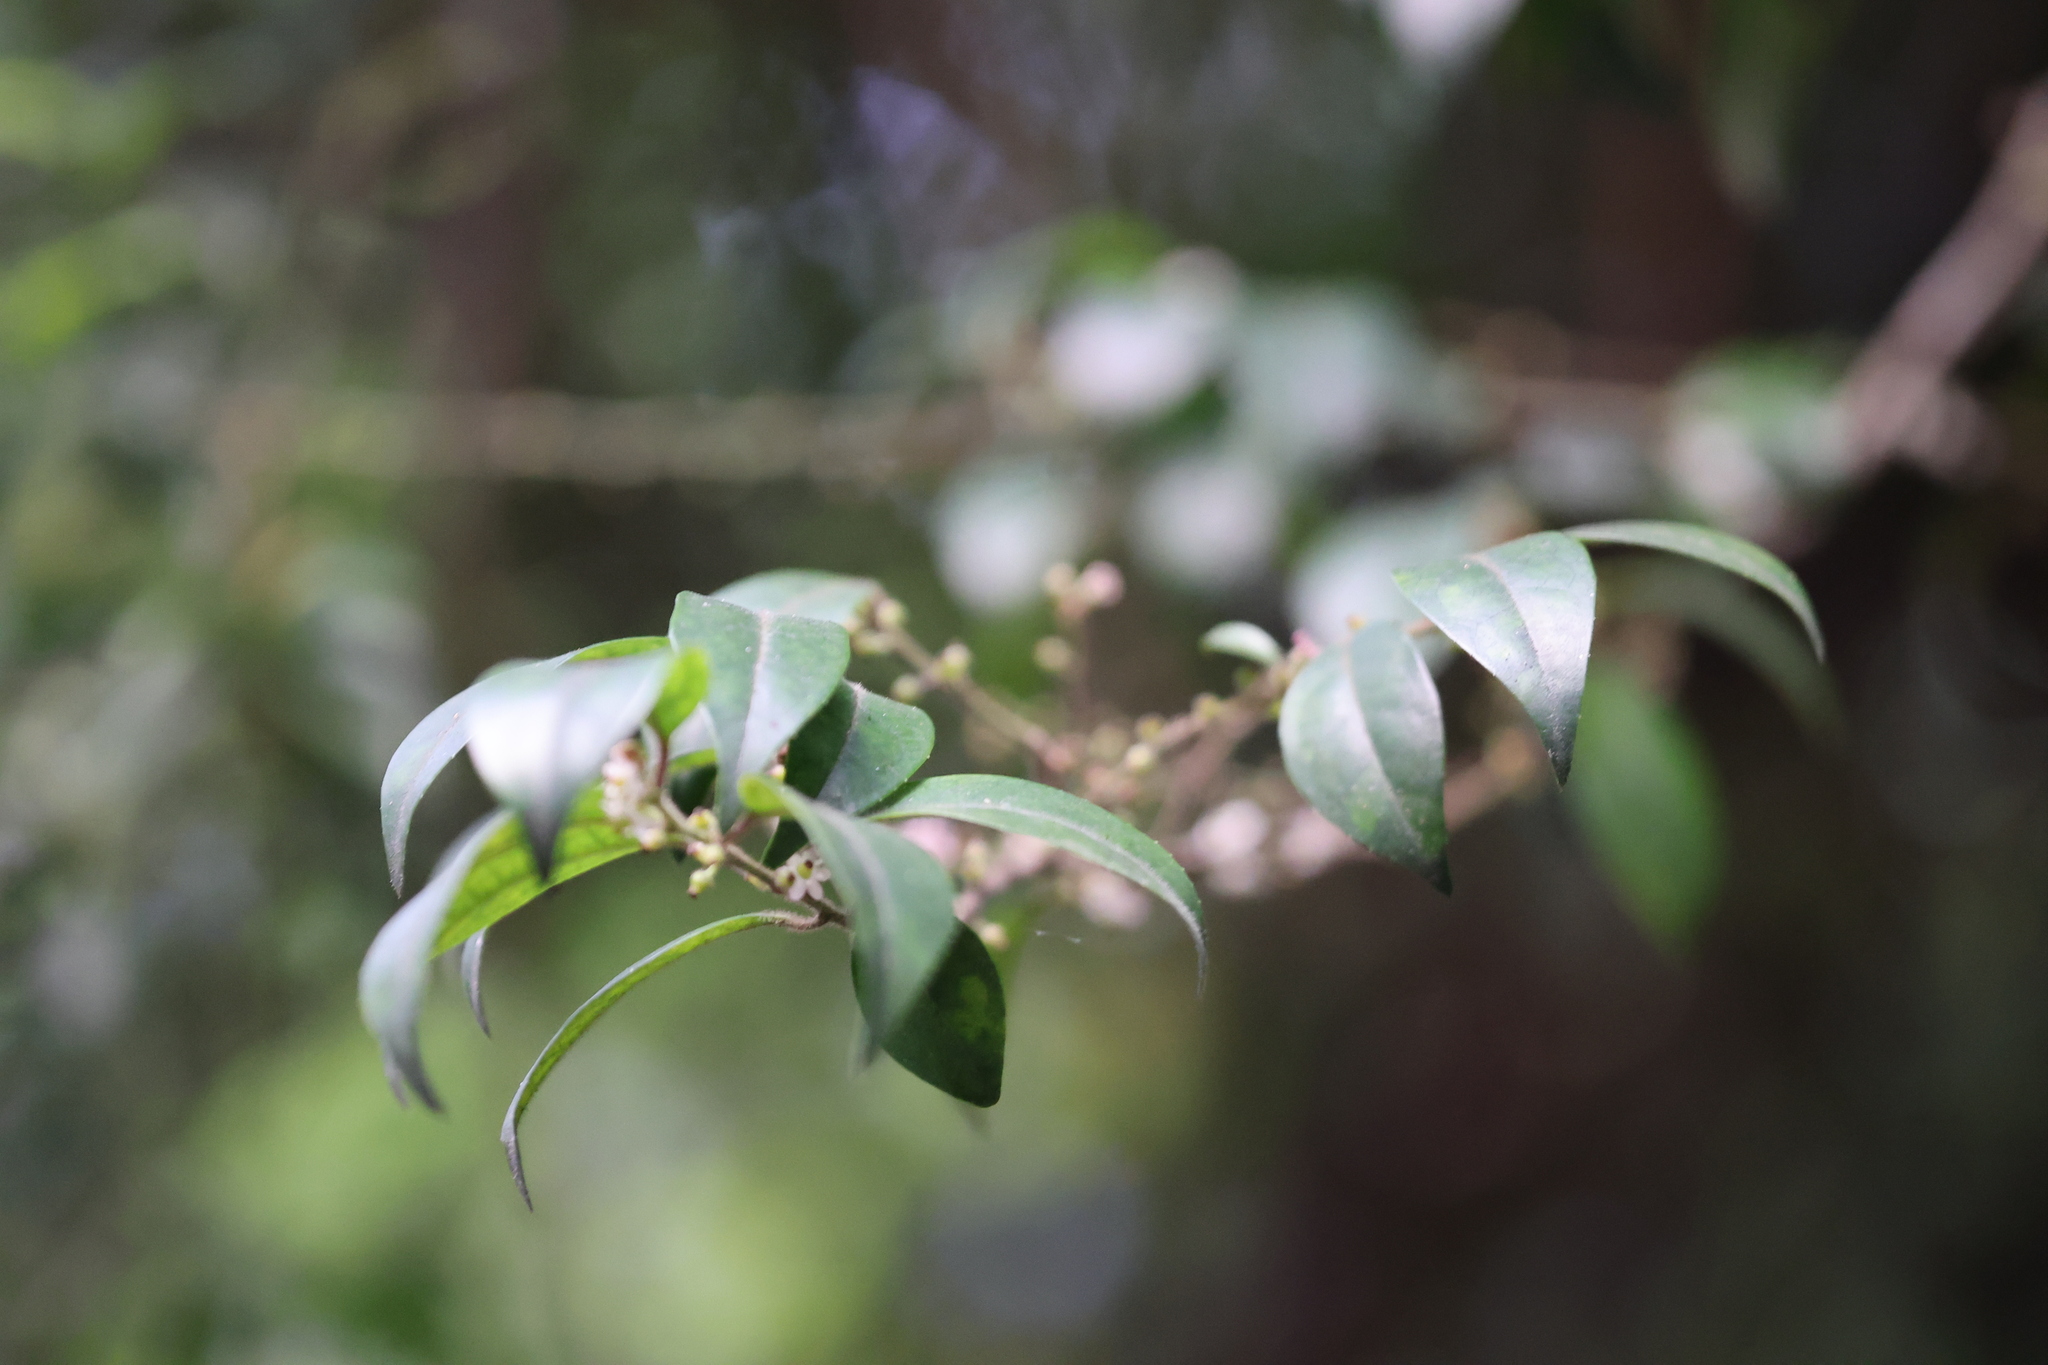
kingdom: Plantae
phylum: Tracheophyta
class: Magnoliopsida
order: Aquifoliales
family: Aquifoliaceae
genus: Ilex
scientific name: Ilex pubescens
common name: Pubescent holly
